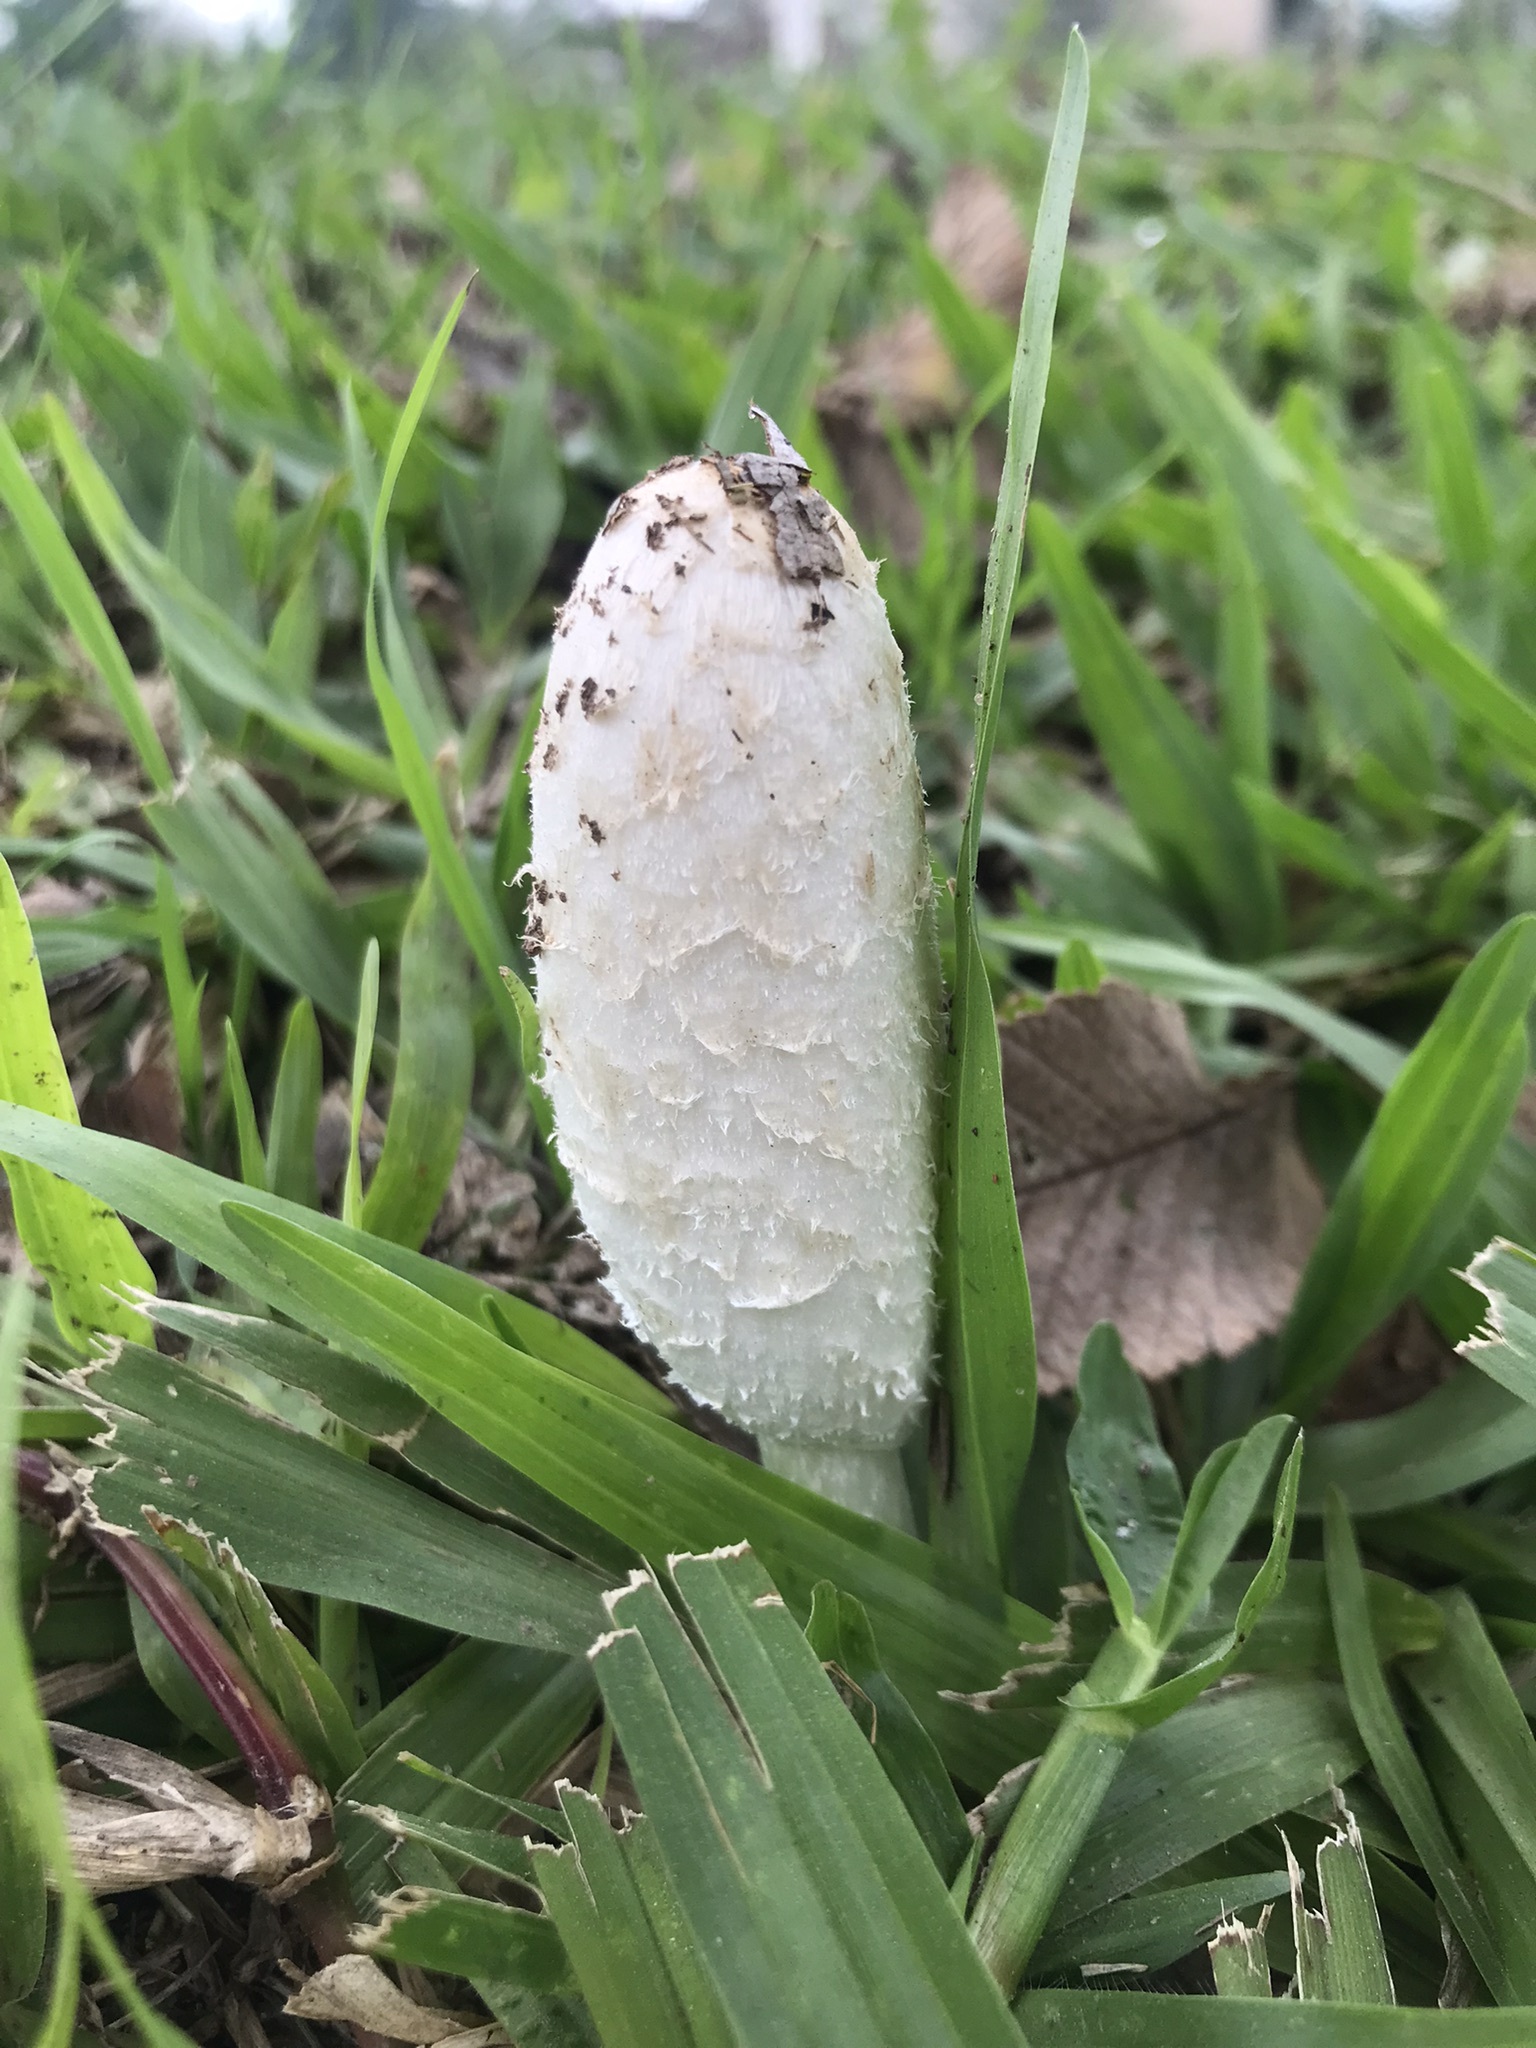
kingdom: Fungi
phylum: Basidiomycota
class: Agaricomycetes
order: Agaricales
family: Agaricaceae
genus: Coprinus
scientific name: Coprinus comatus
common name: Lawyer's wig
